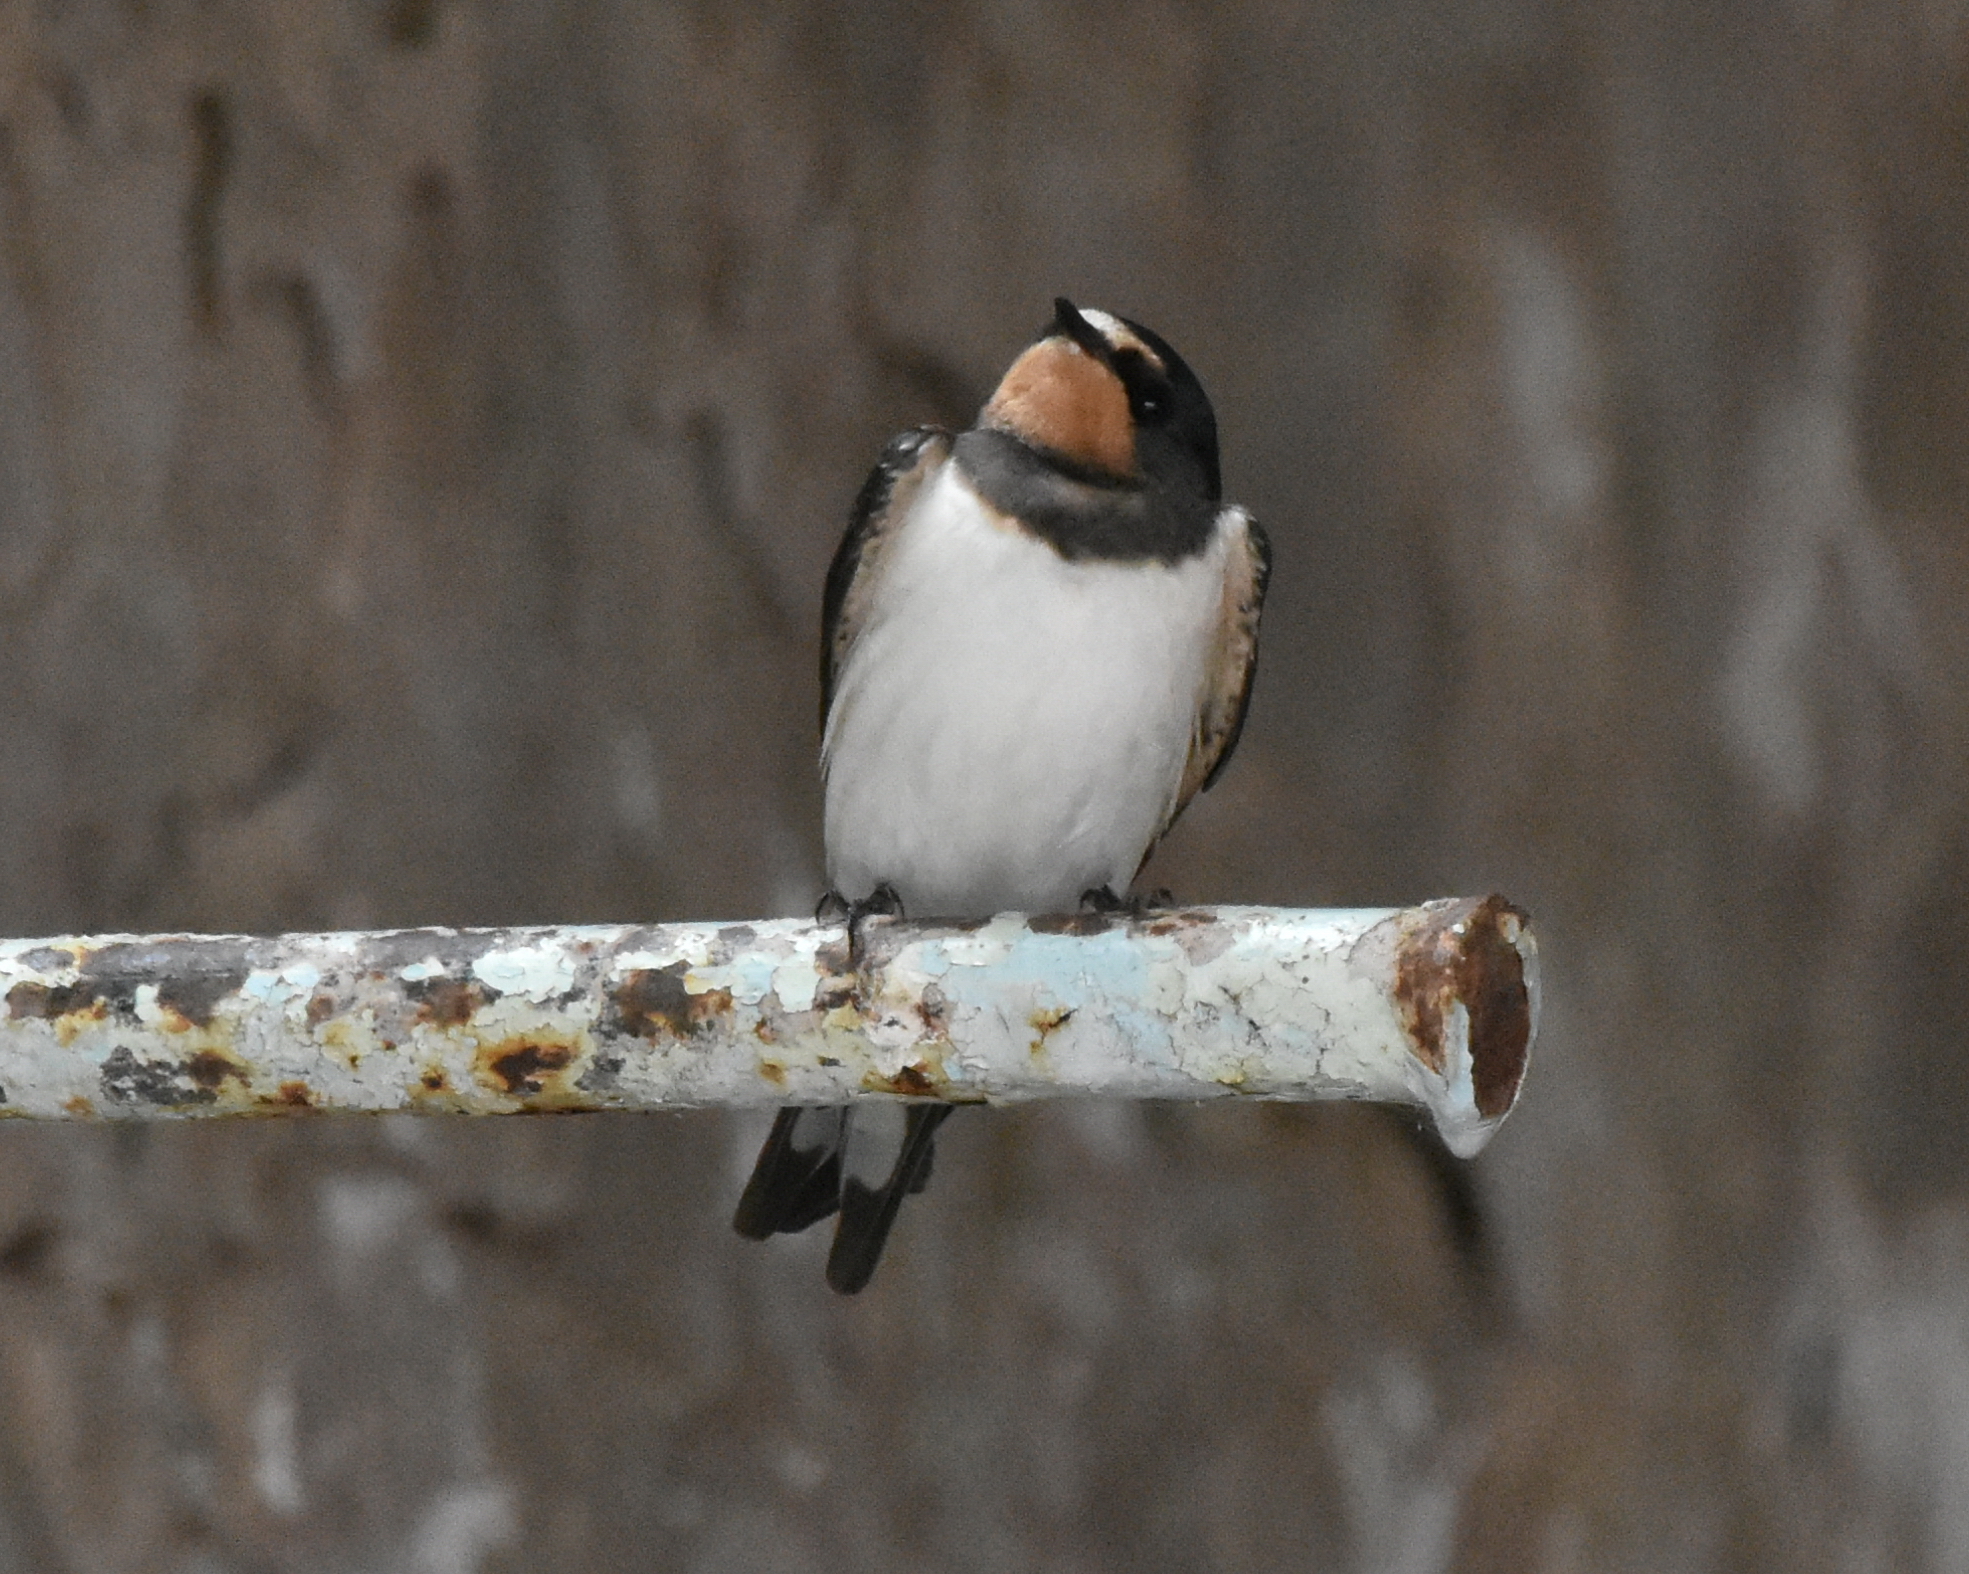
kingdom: Animalia
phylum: Chordata
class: Aves
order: Passeriformes
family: Hirundinidae
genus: Hirundo
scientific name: Hirundo rustica
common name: Barn swallow
